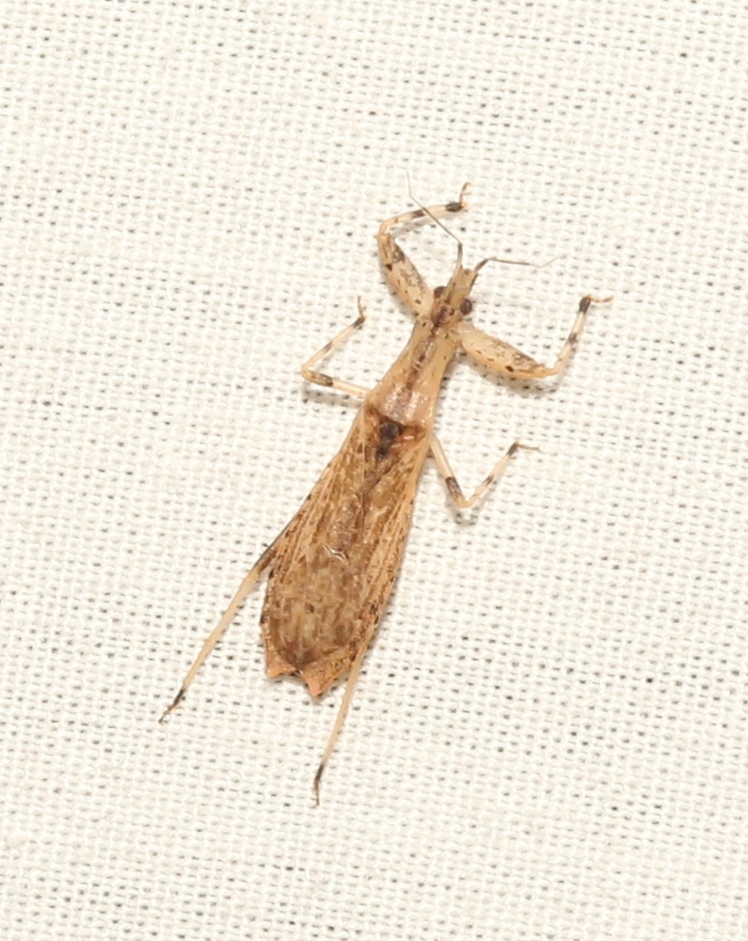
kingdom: Animalia
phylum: Arthropoda
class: Insecta
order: Hemiptera
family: Reduviidae
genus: Ctenotrachelus
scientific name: Ctenotrachelus shermani
